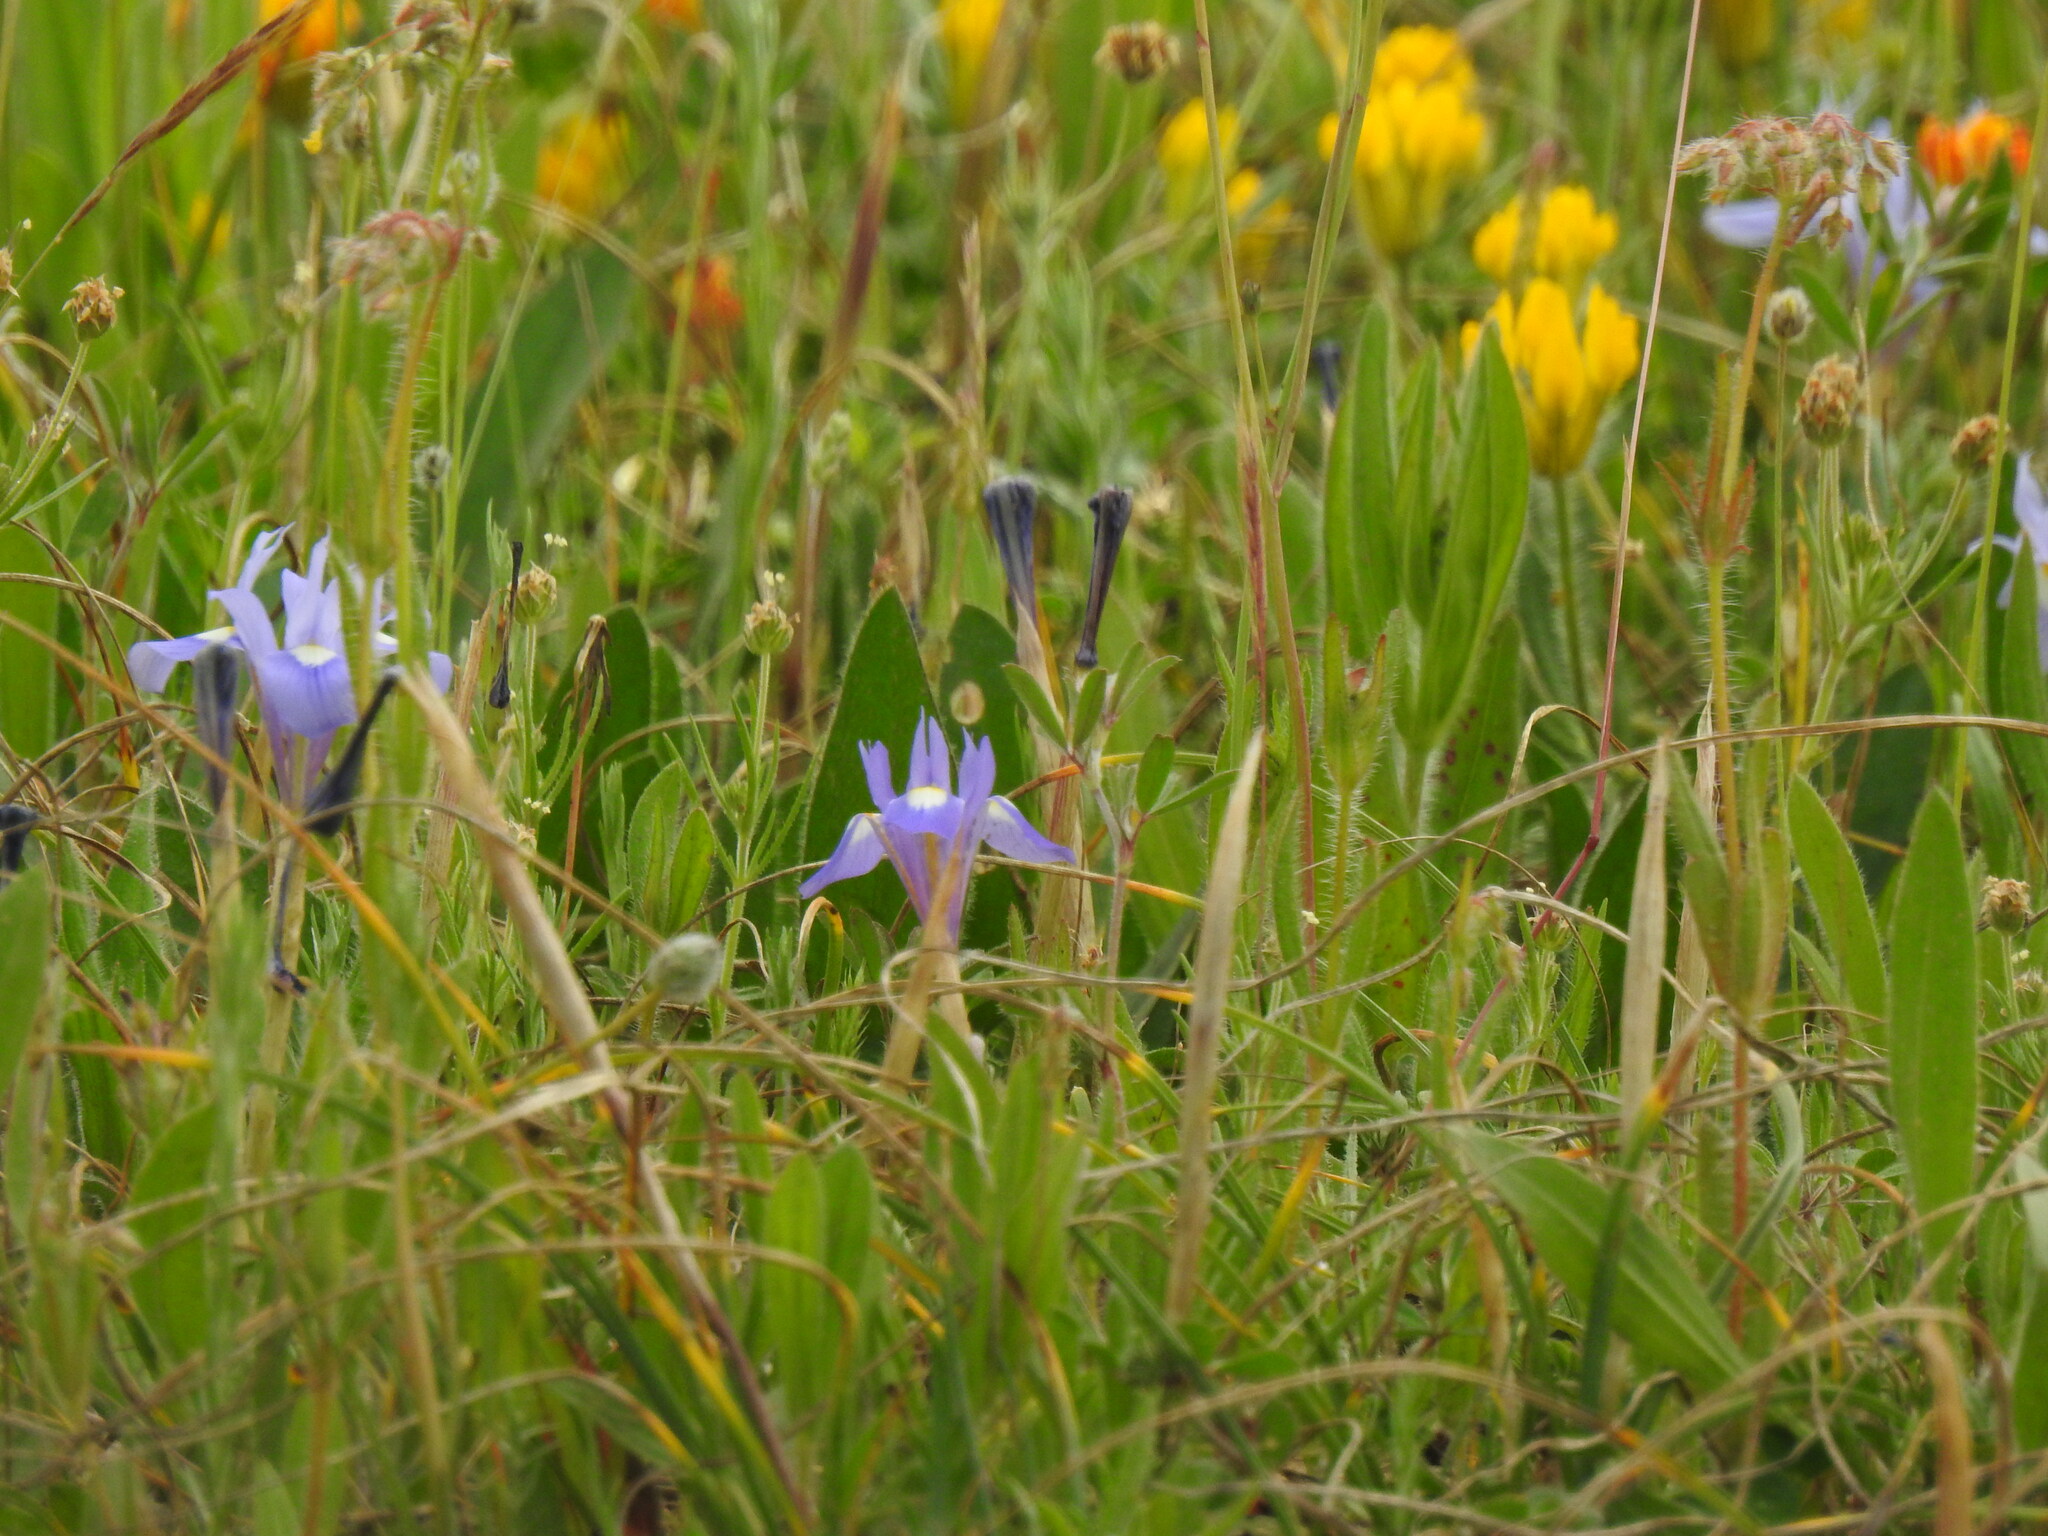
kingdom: Plantae
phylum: Tracheophyta
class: Liliopsida
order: Asparagales
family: Iridaceae
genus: Moraea
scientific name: Moraea sisyrinchium
